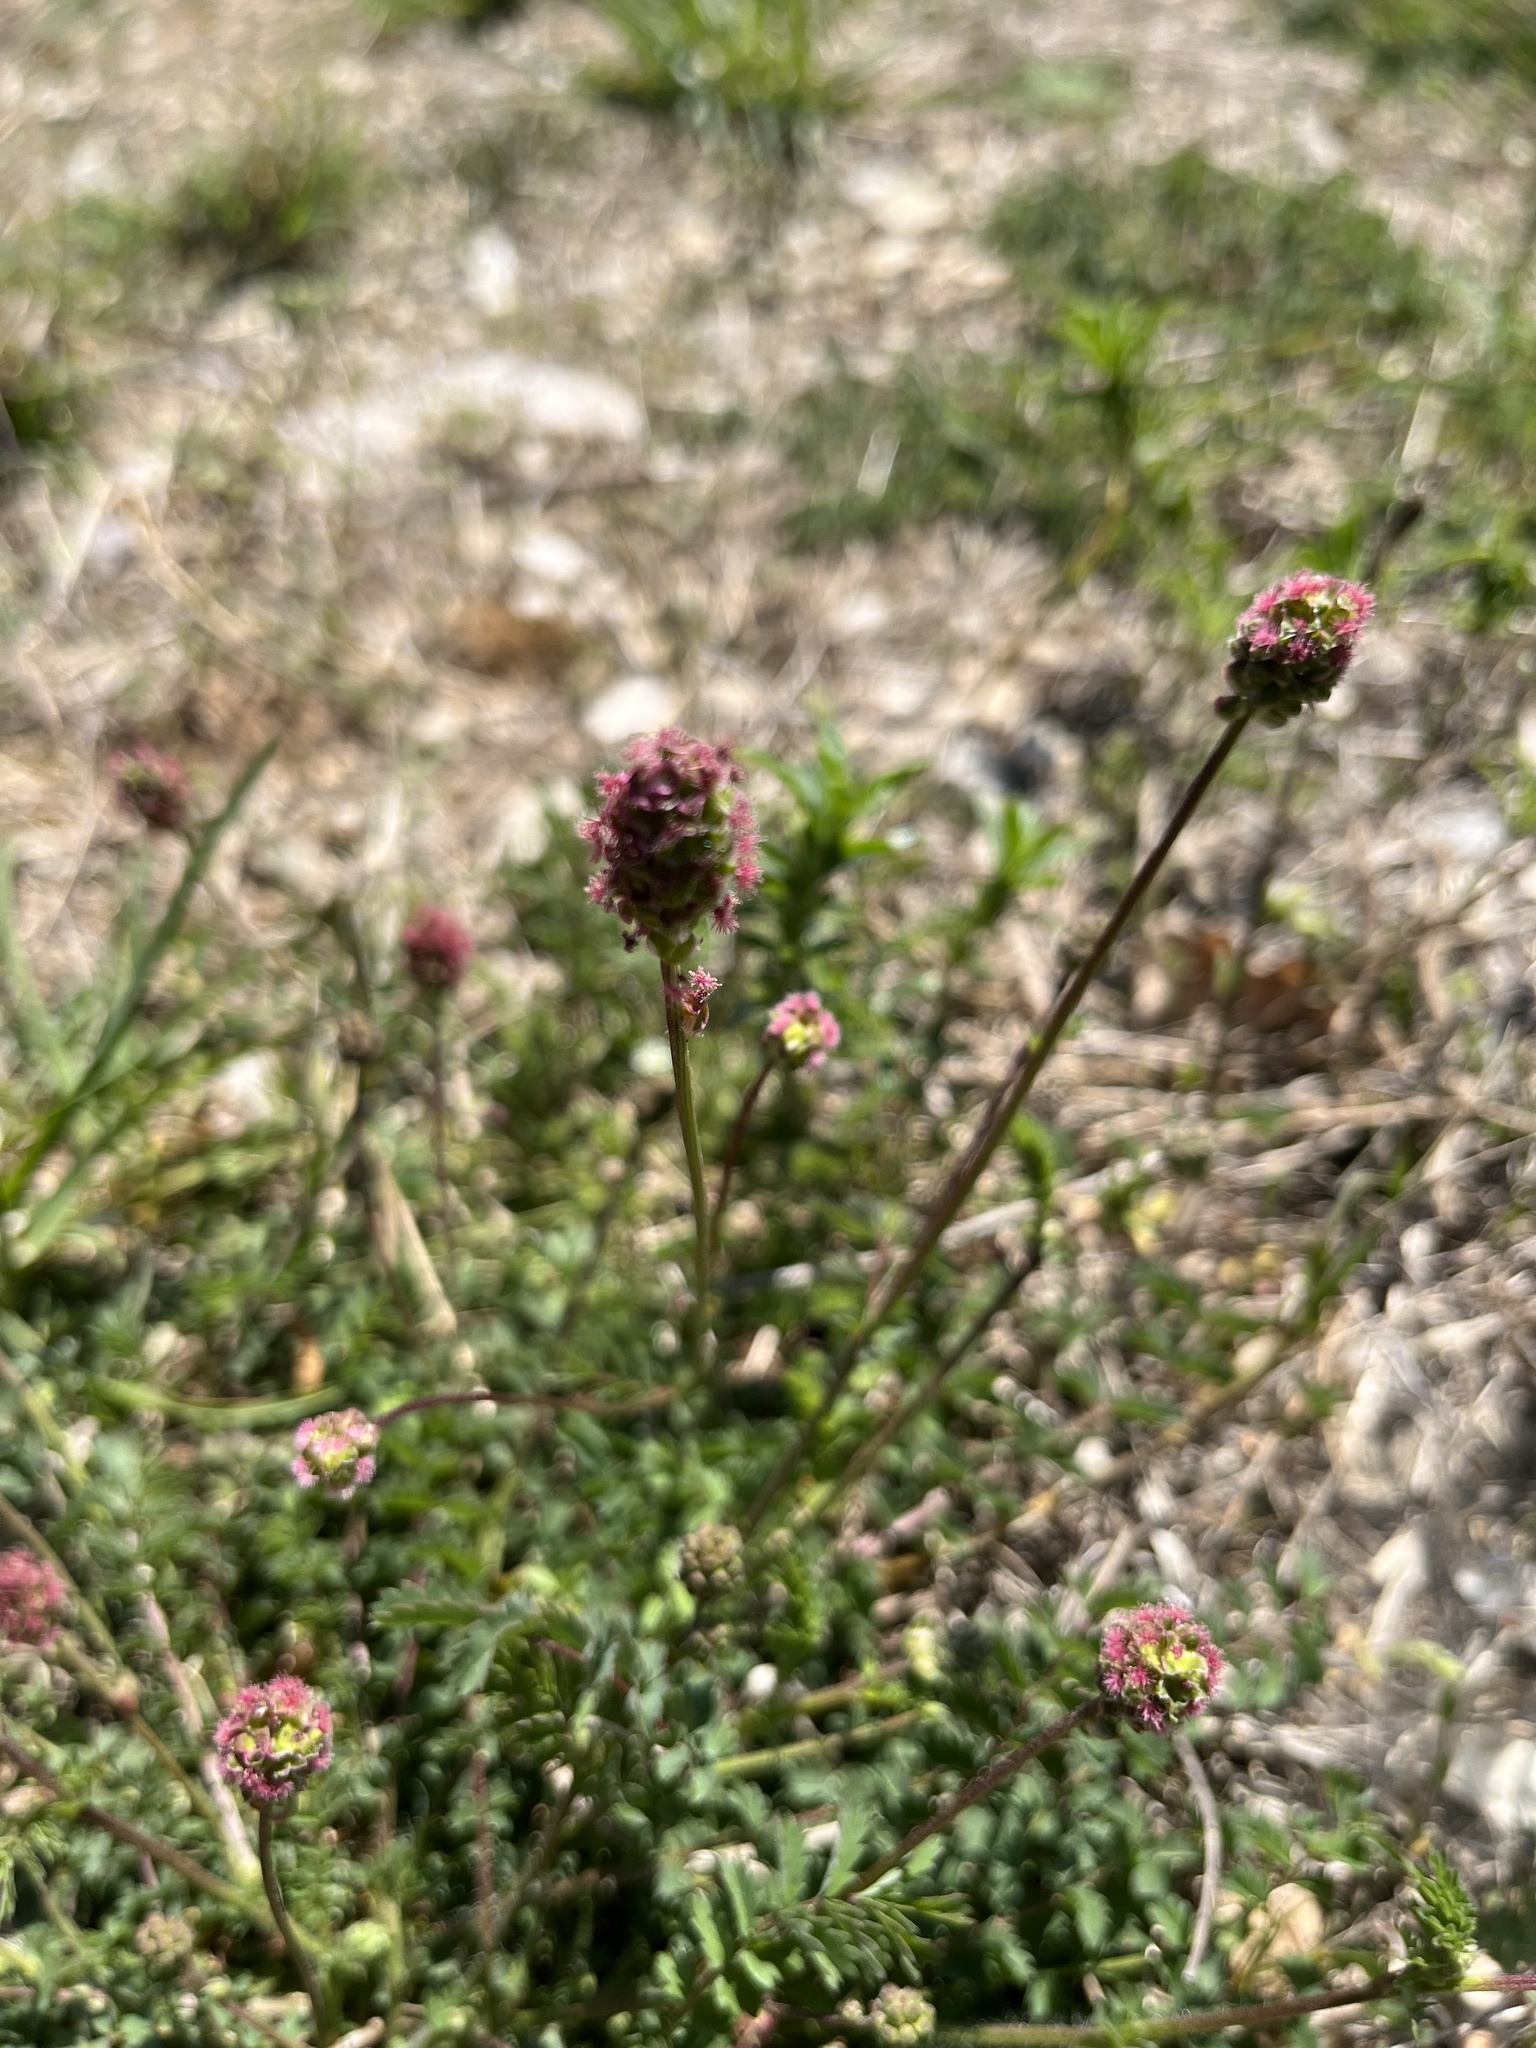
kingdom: Plantae
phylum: Tracheophyta
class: Magnoliopsida
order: Rosales
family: Rosaceae
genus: Poterium
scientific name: Poterium sanguisorba
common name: Salad burnet
